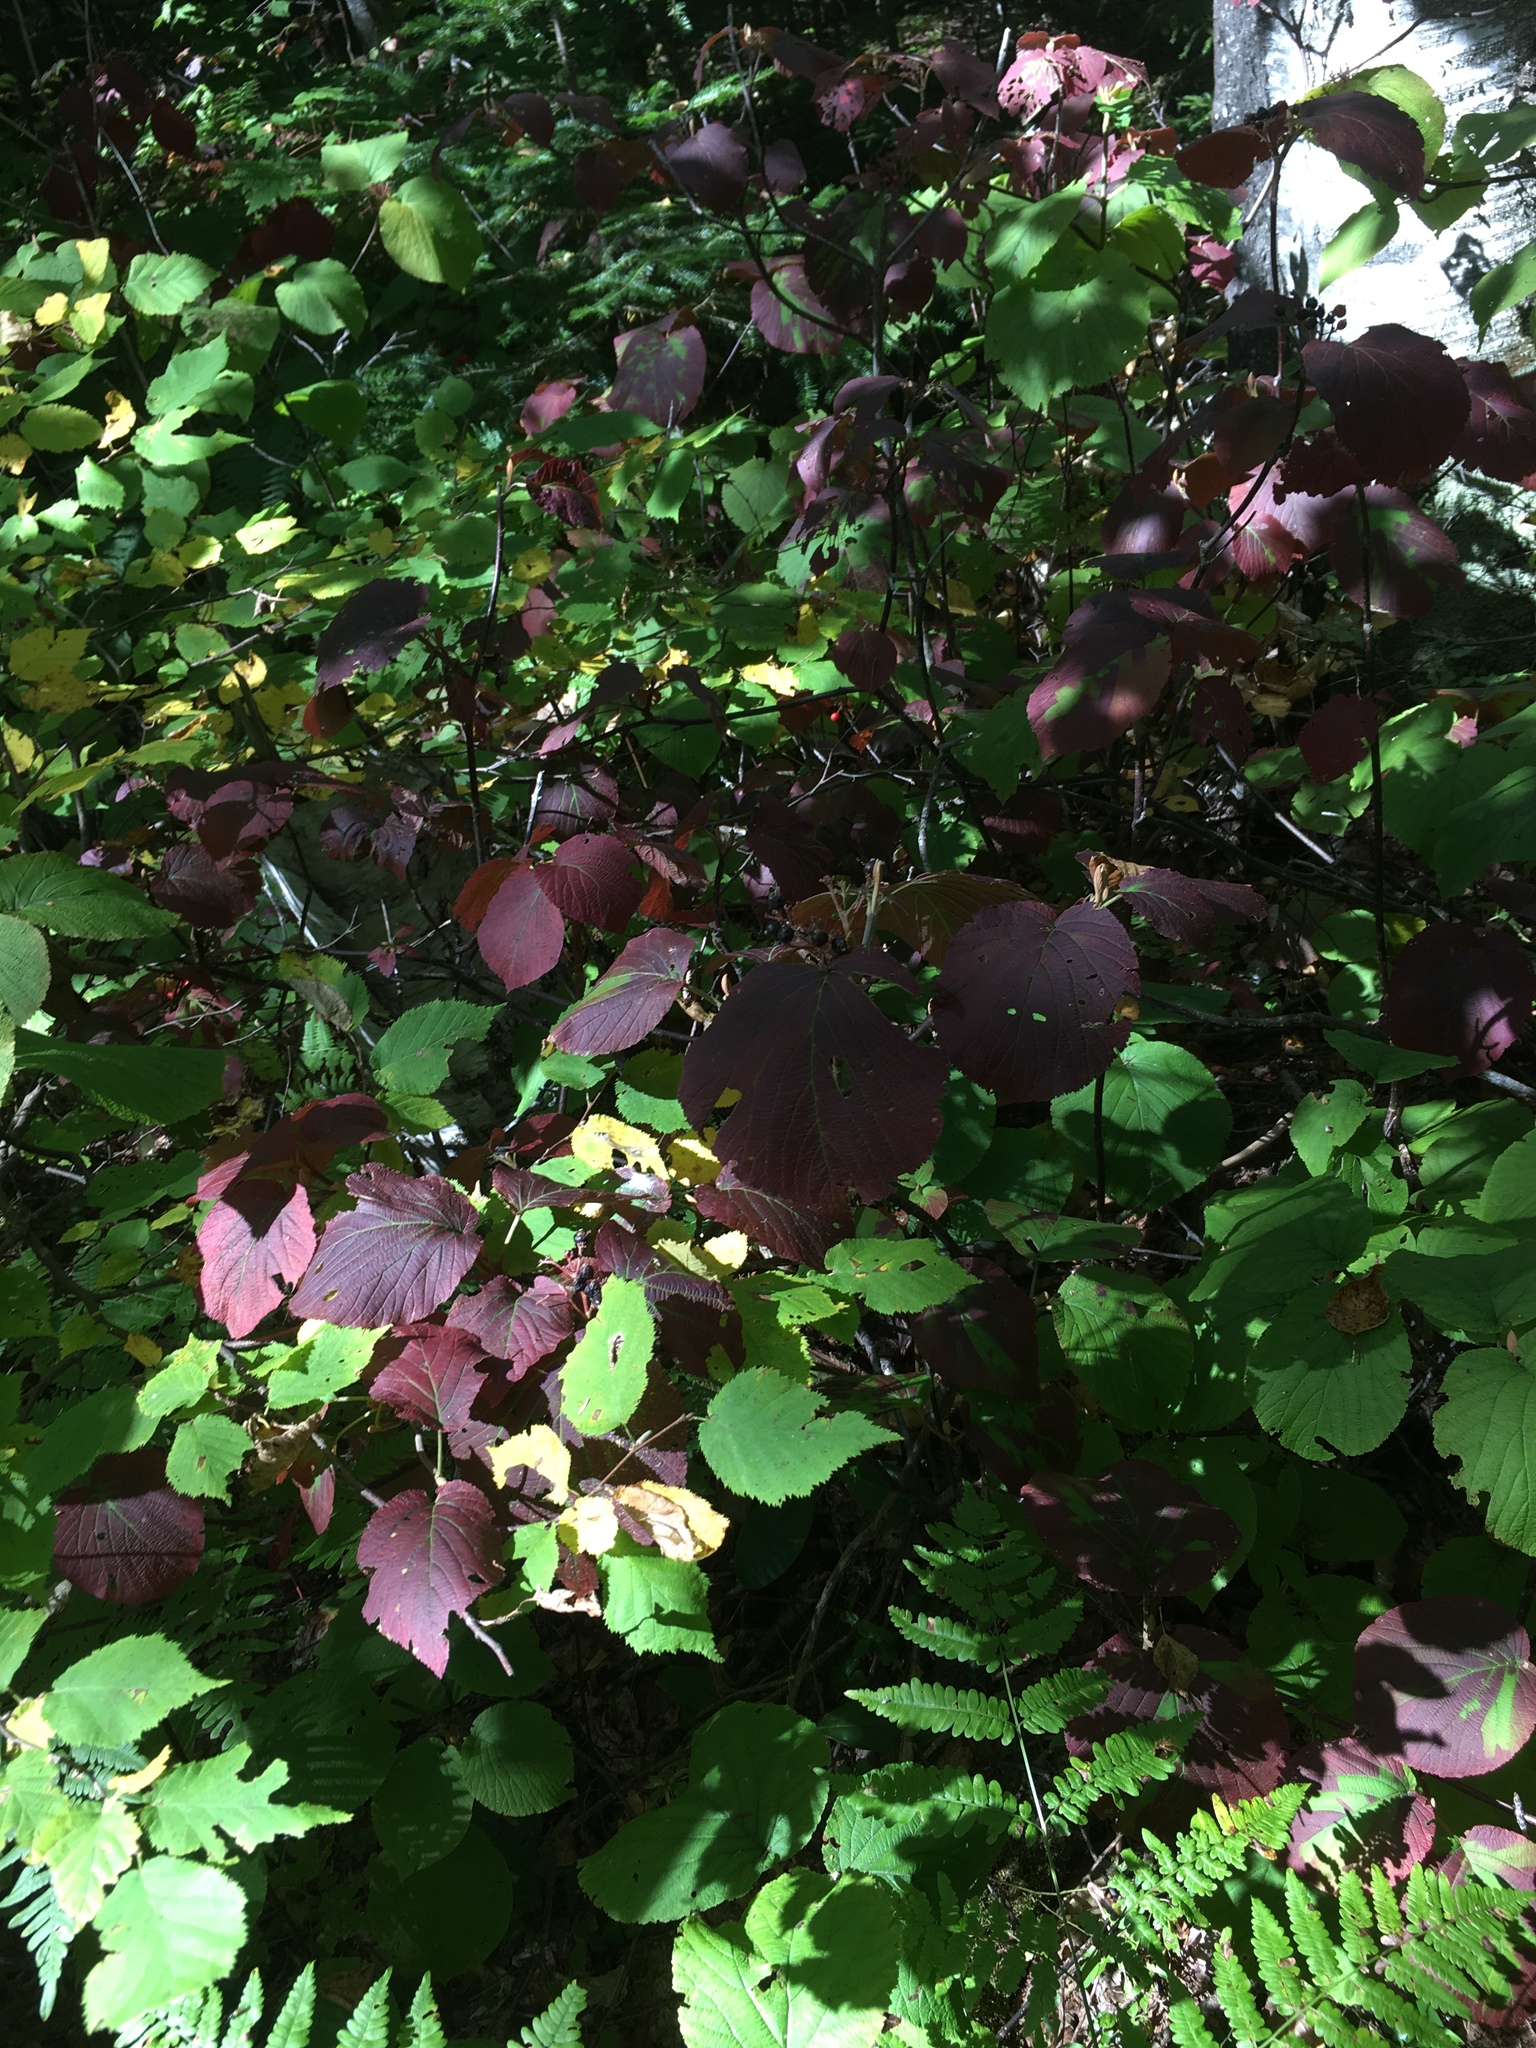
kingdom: Plantae
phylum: Tracheophyta
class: Magnoliopsida
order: Dipsacales
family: Viburnaceae
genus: Viburnum
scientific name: Viburnum lantanoides
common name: Hobblebush
